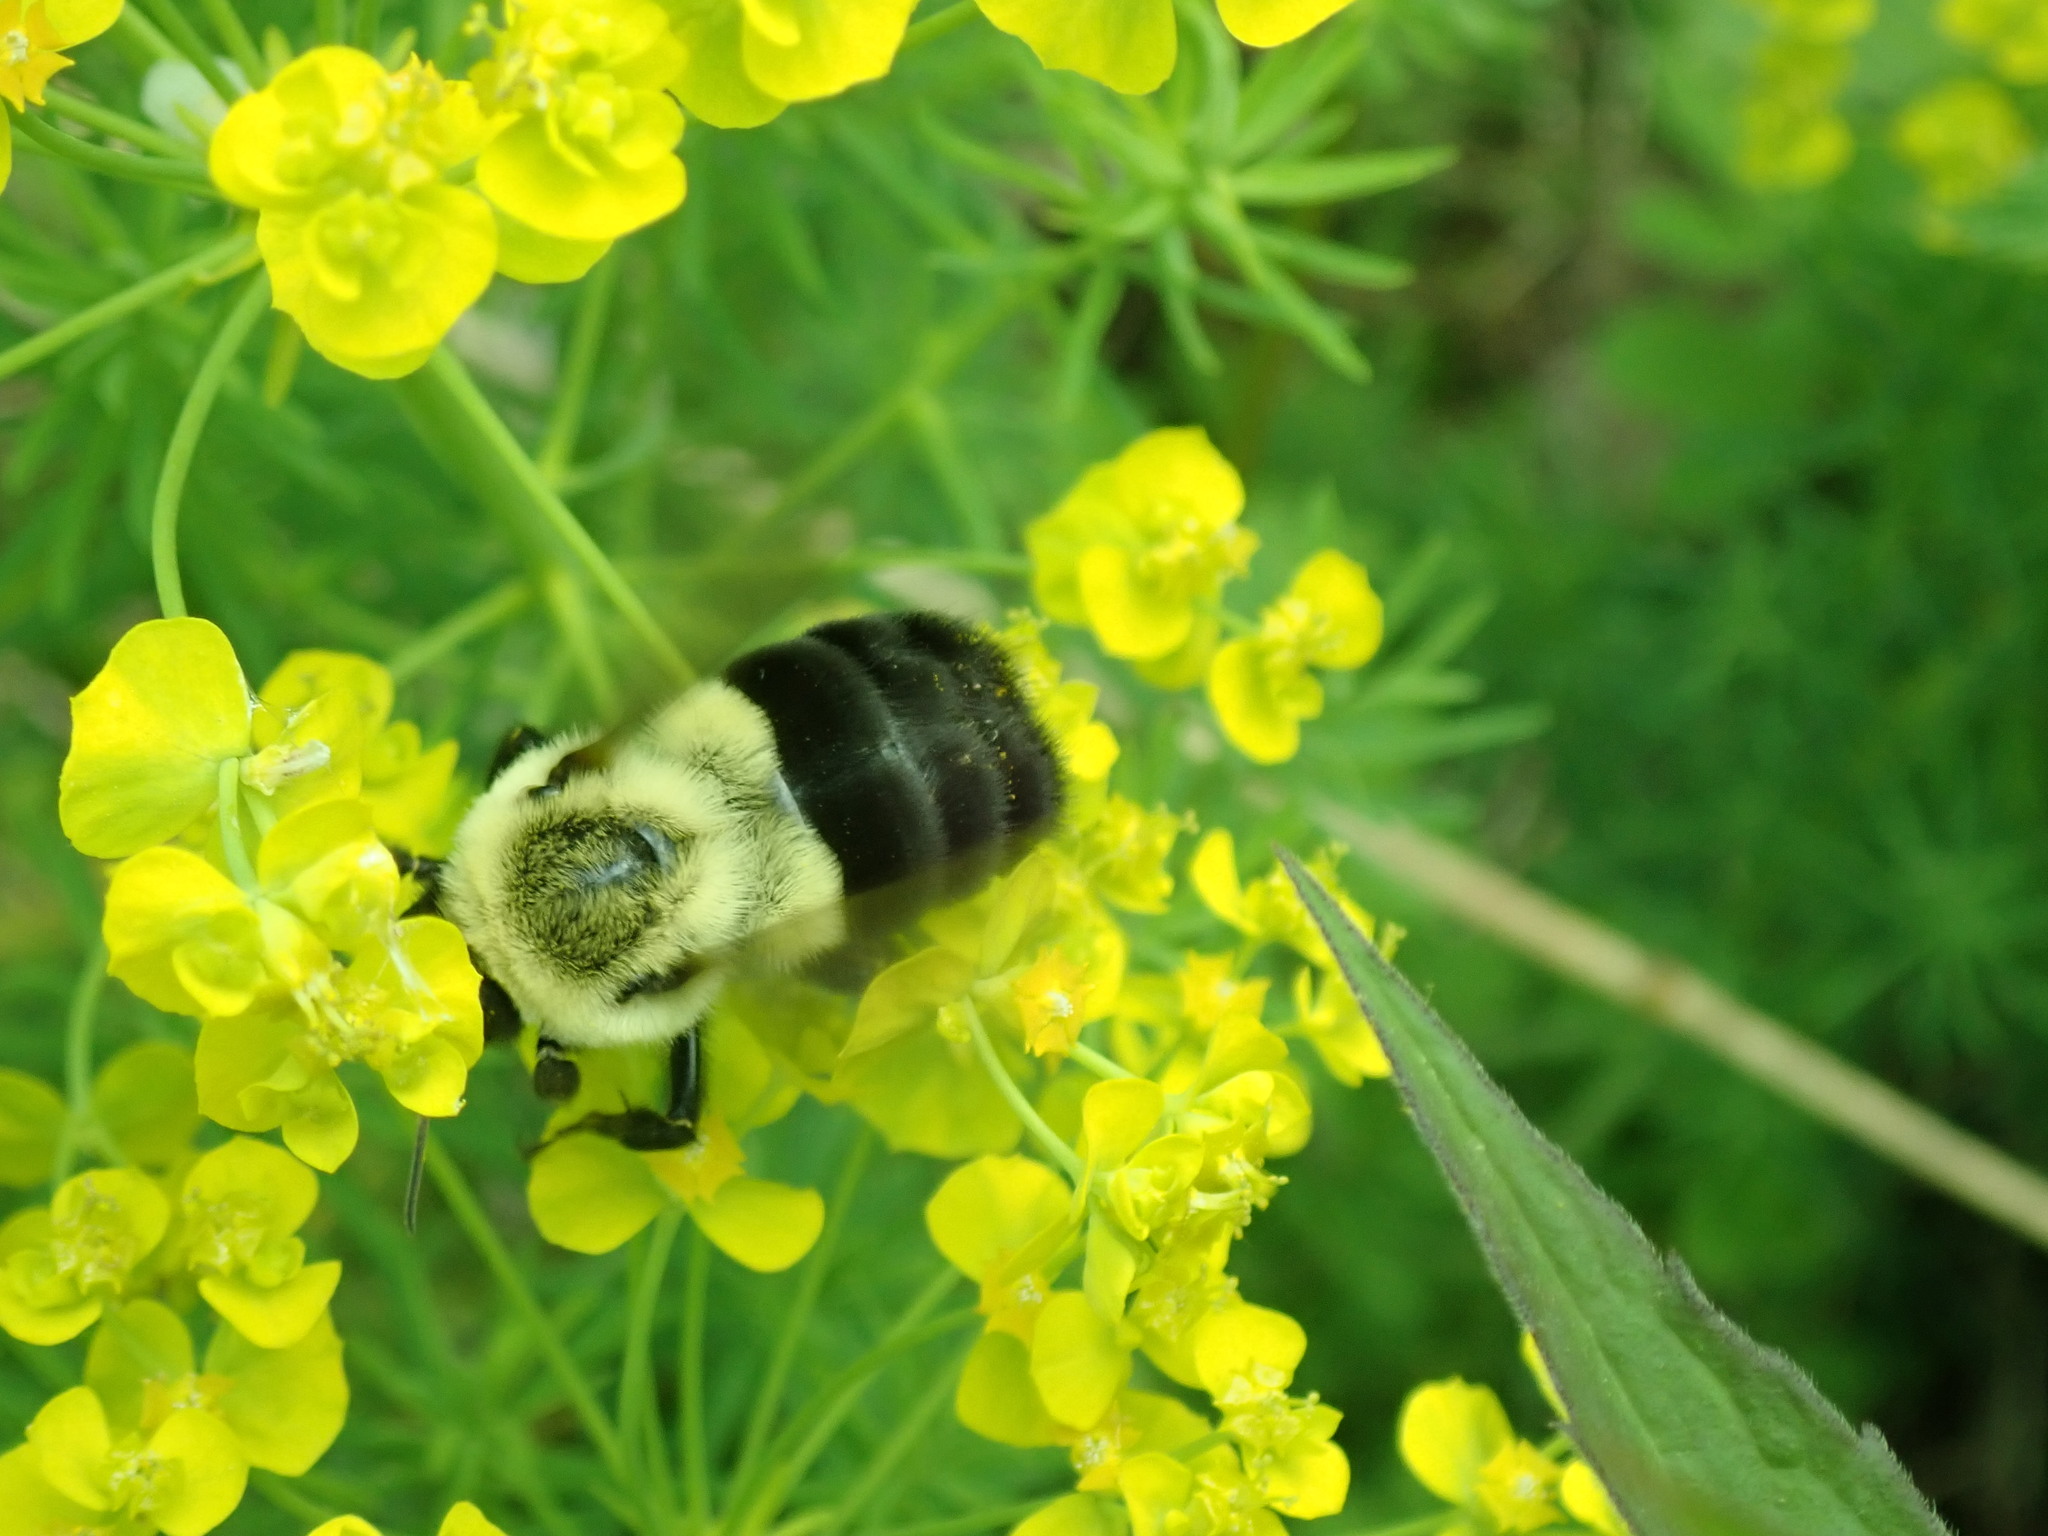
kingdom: Animalia
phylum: Arthropoda
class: Insecta
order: Hymenoptera
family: Apidae
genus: Bombus
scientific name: Bombus impatiens
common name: Common eastern bumble bee
